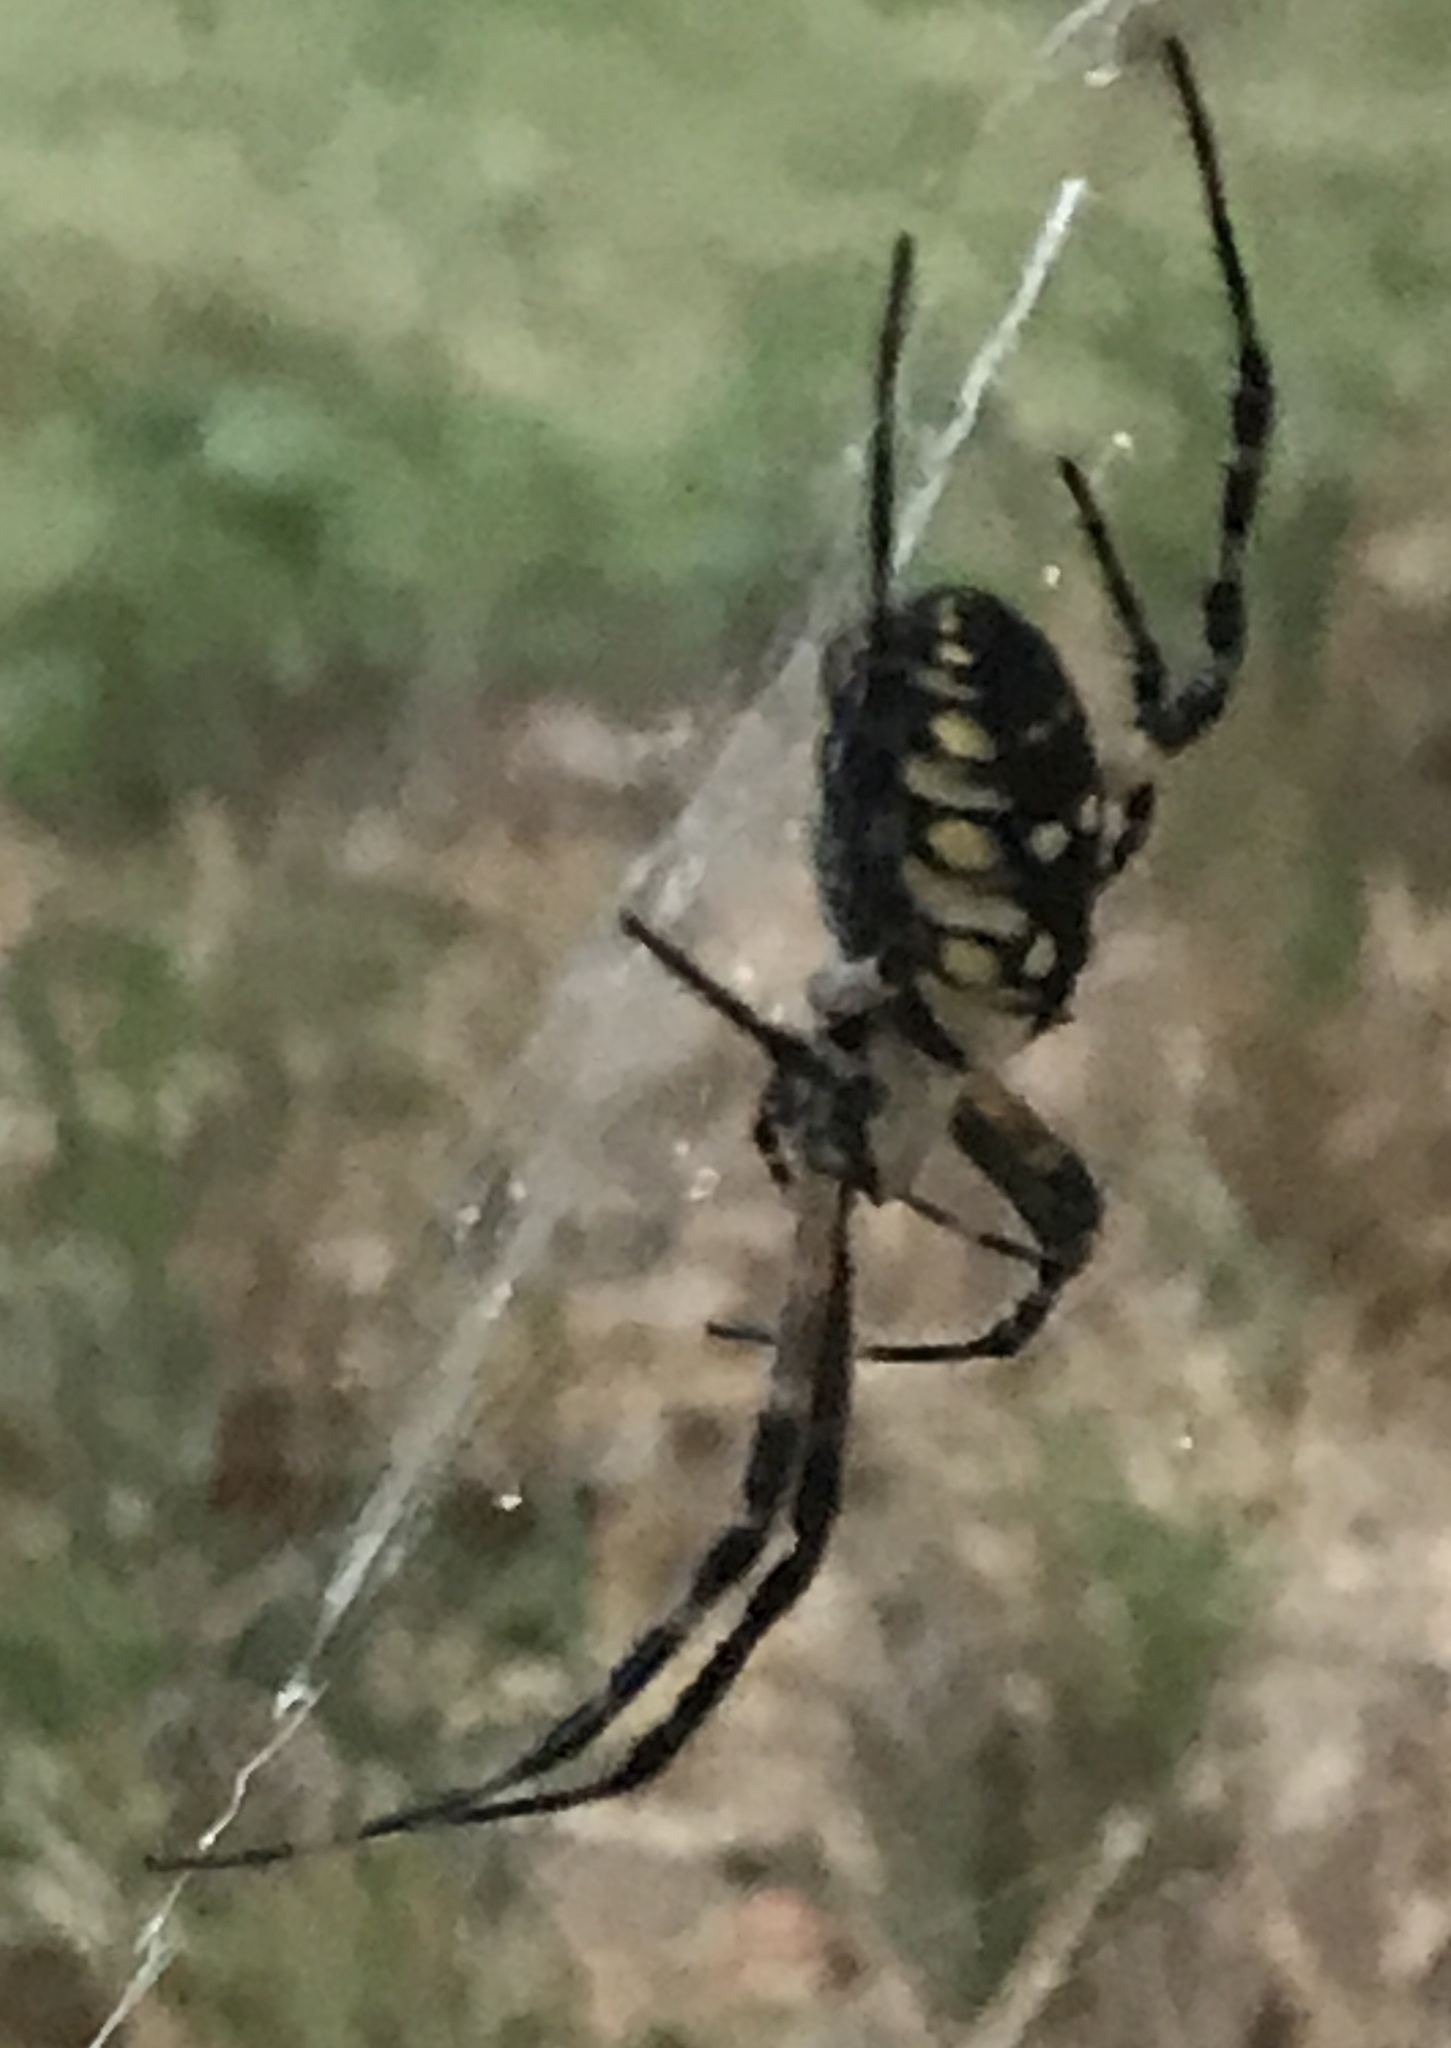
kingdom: Animalia
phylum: Arthropoda
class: Arachnida
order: Araneae
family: Araneidae
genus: Argiope
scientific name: Argiope aurantia
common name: Orb weavers
